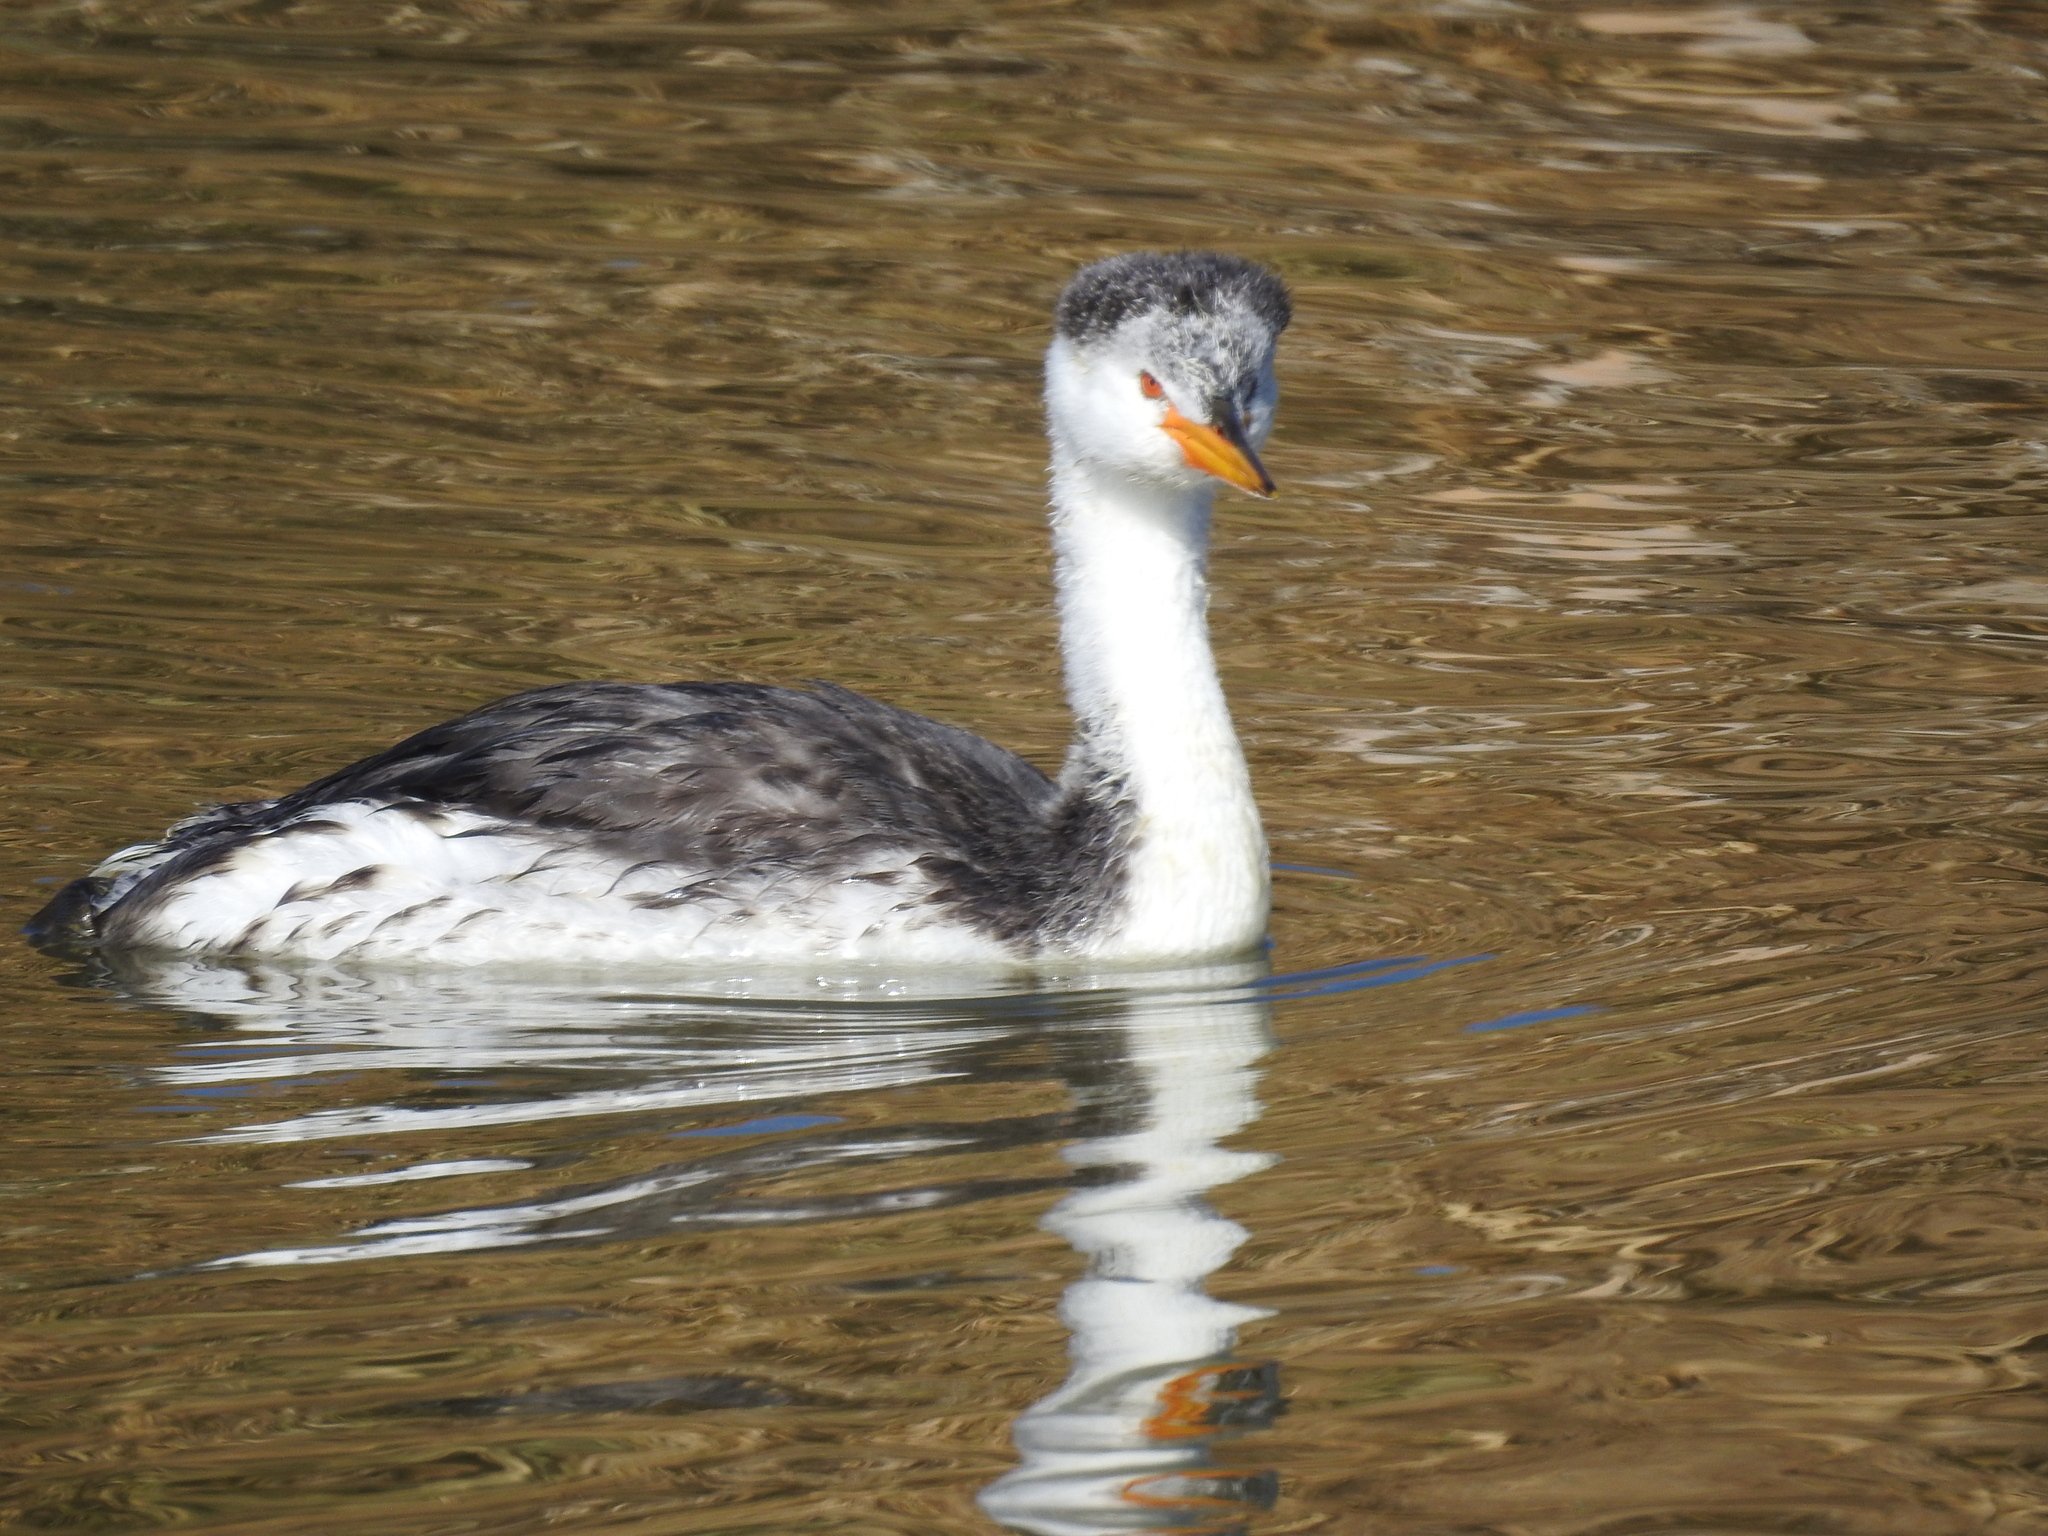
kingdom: Animalia
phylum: Chordata
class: Aves
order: Podicipediformes
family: Podicipedidae
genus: Aechmophorus
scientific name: Aechmophorus clarkii
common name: Clark's grebe
